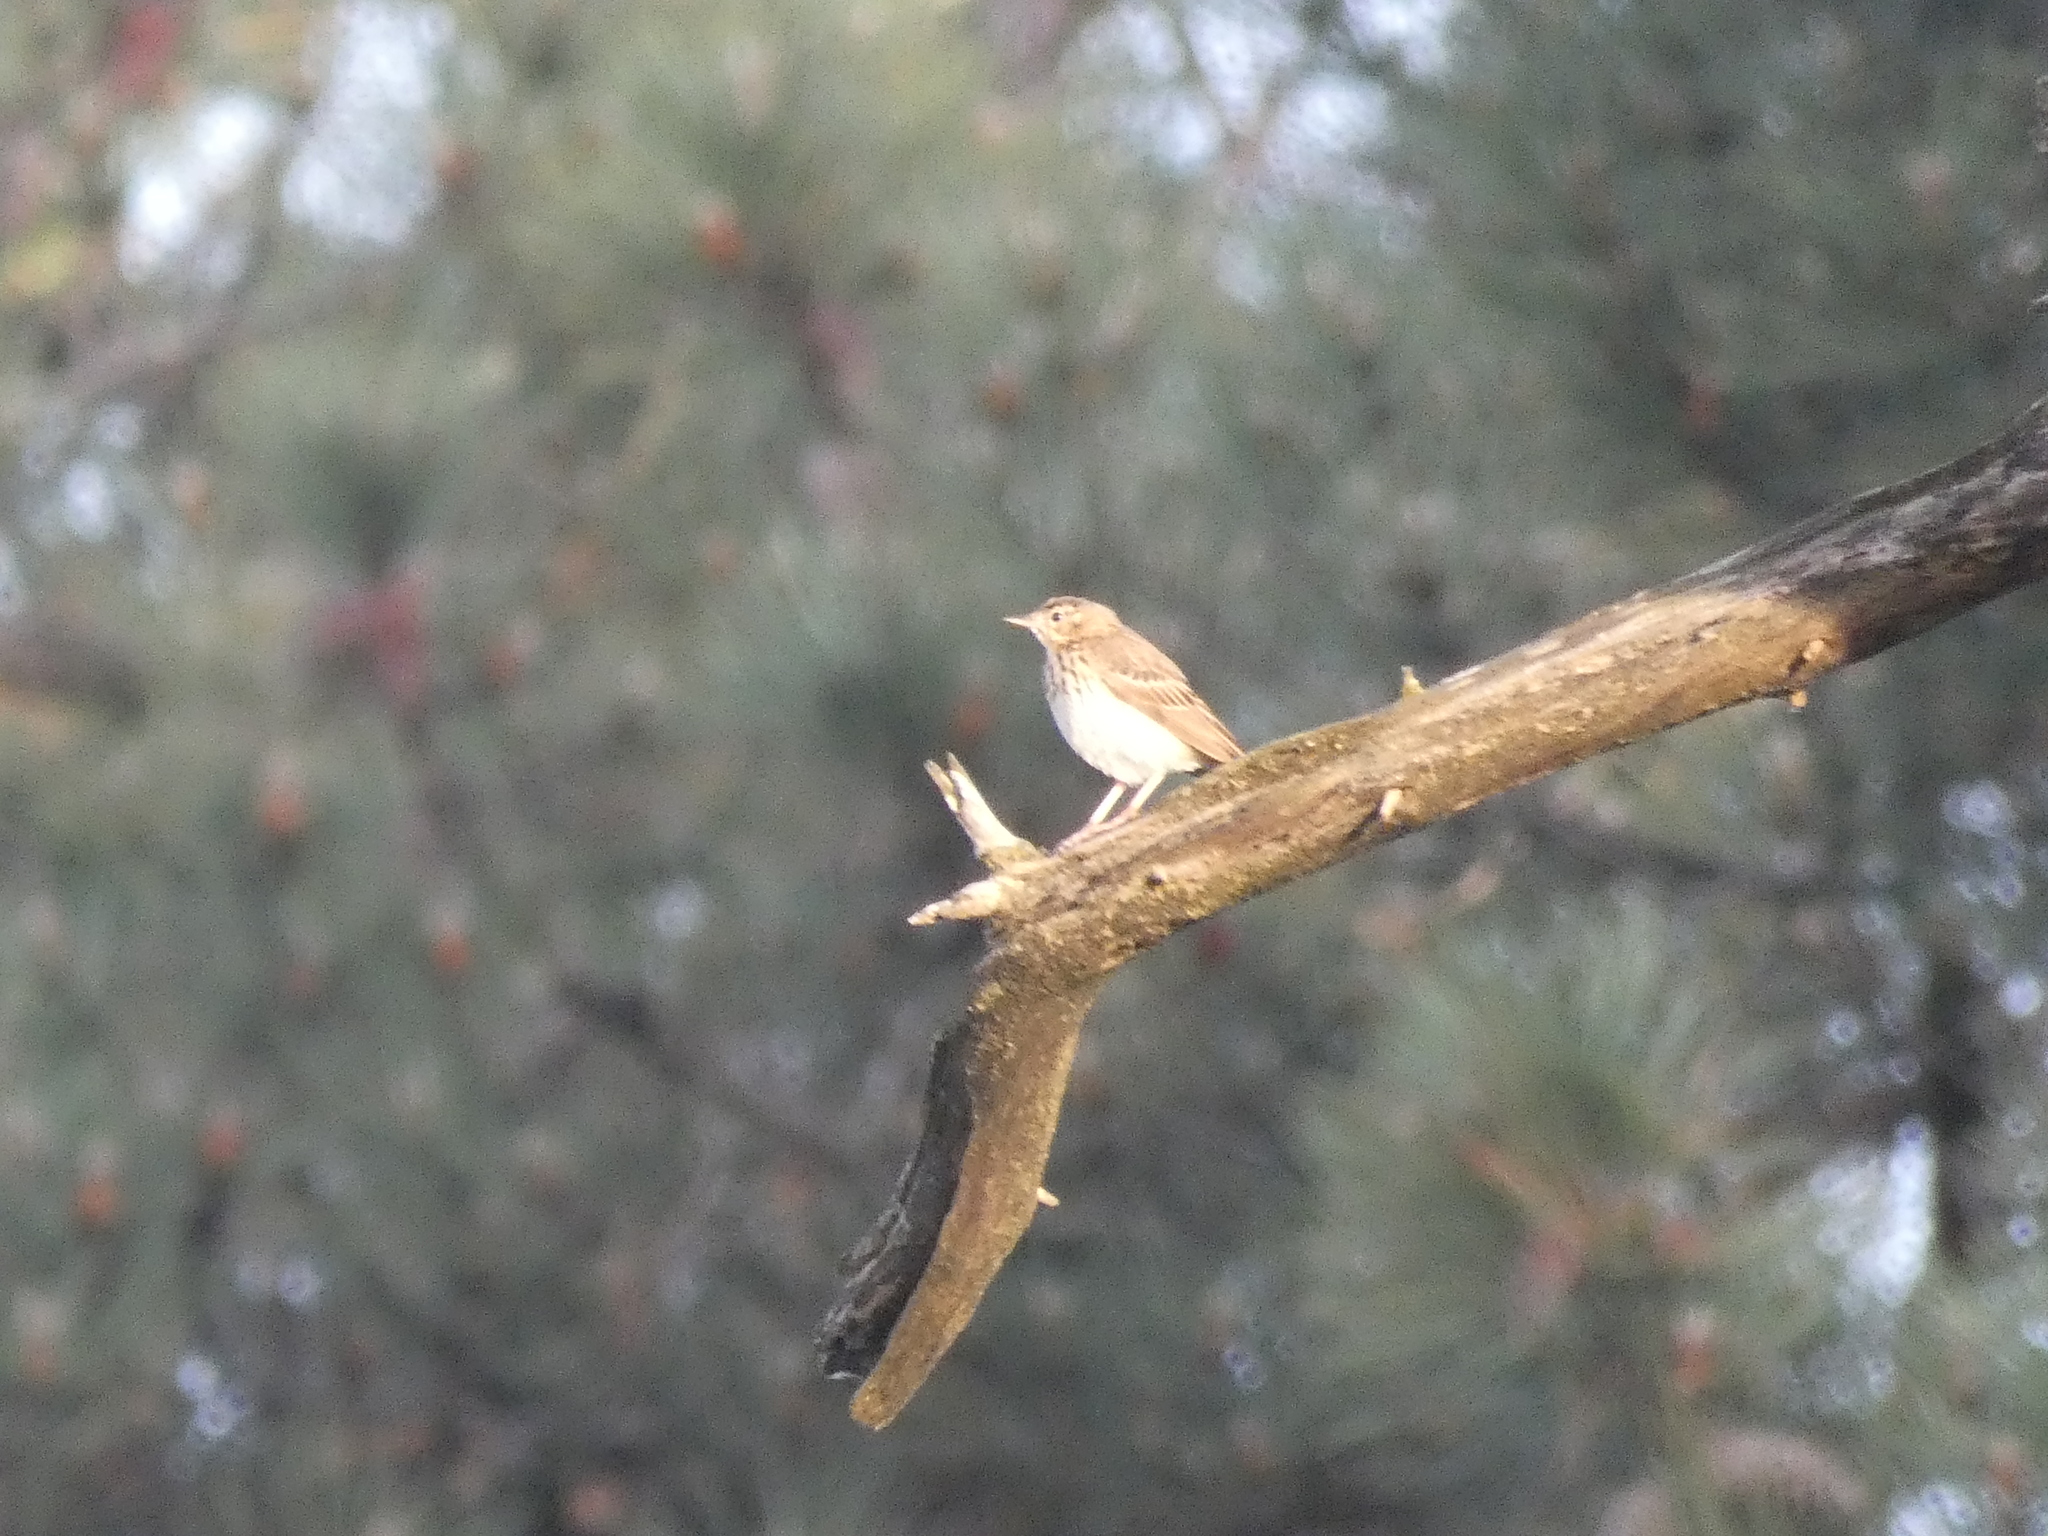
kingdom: Animalia
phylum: Chordata
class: Aves
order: Passeriformes
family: Motacillidae
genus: Anthus
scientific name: Anthus trivialis
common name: Tree pipit
